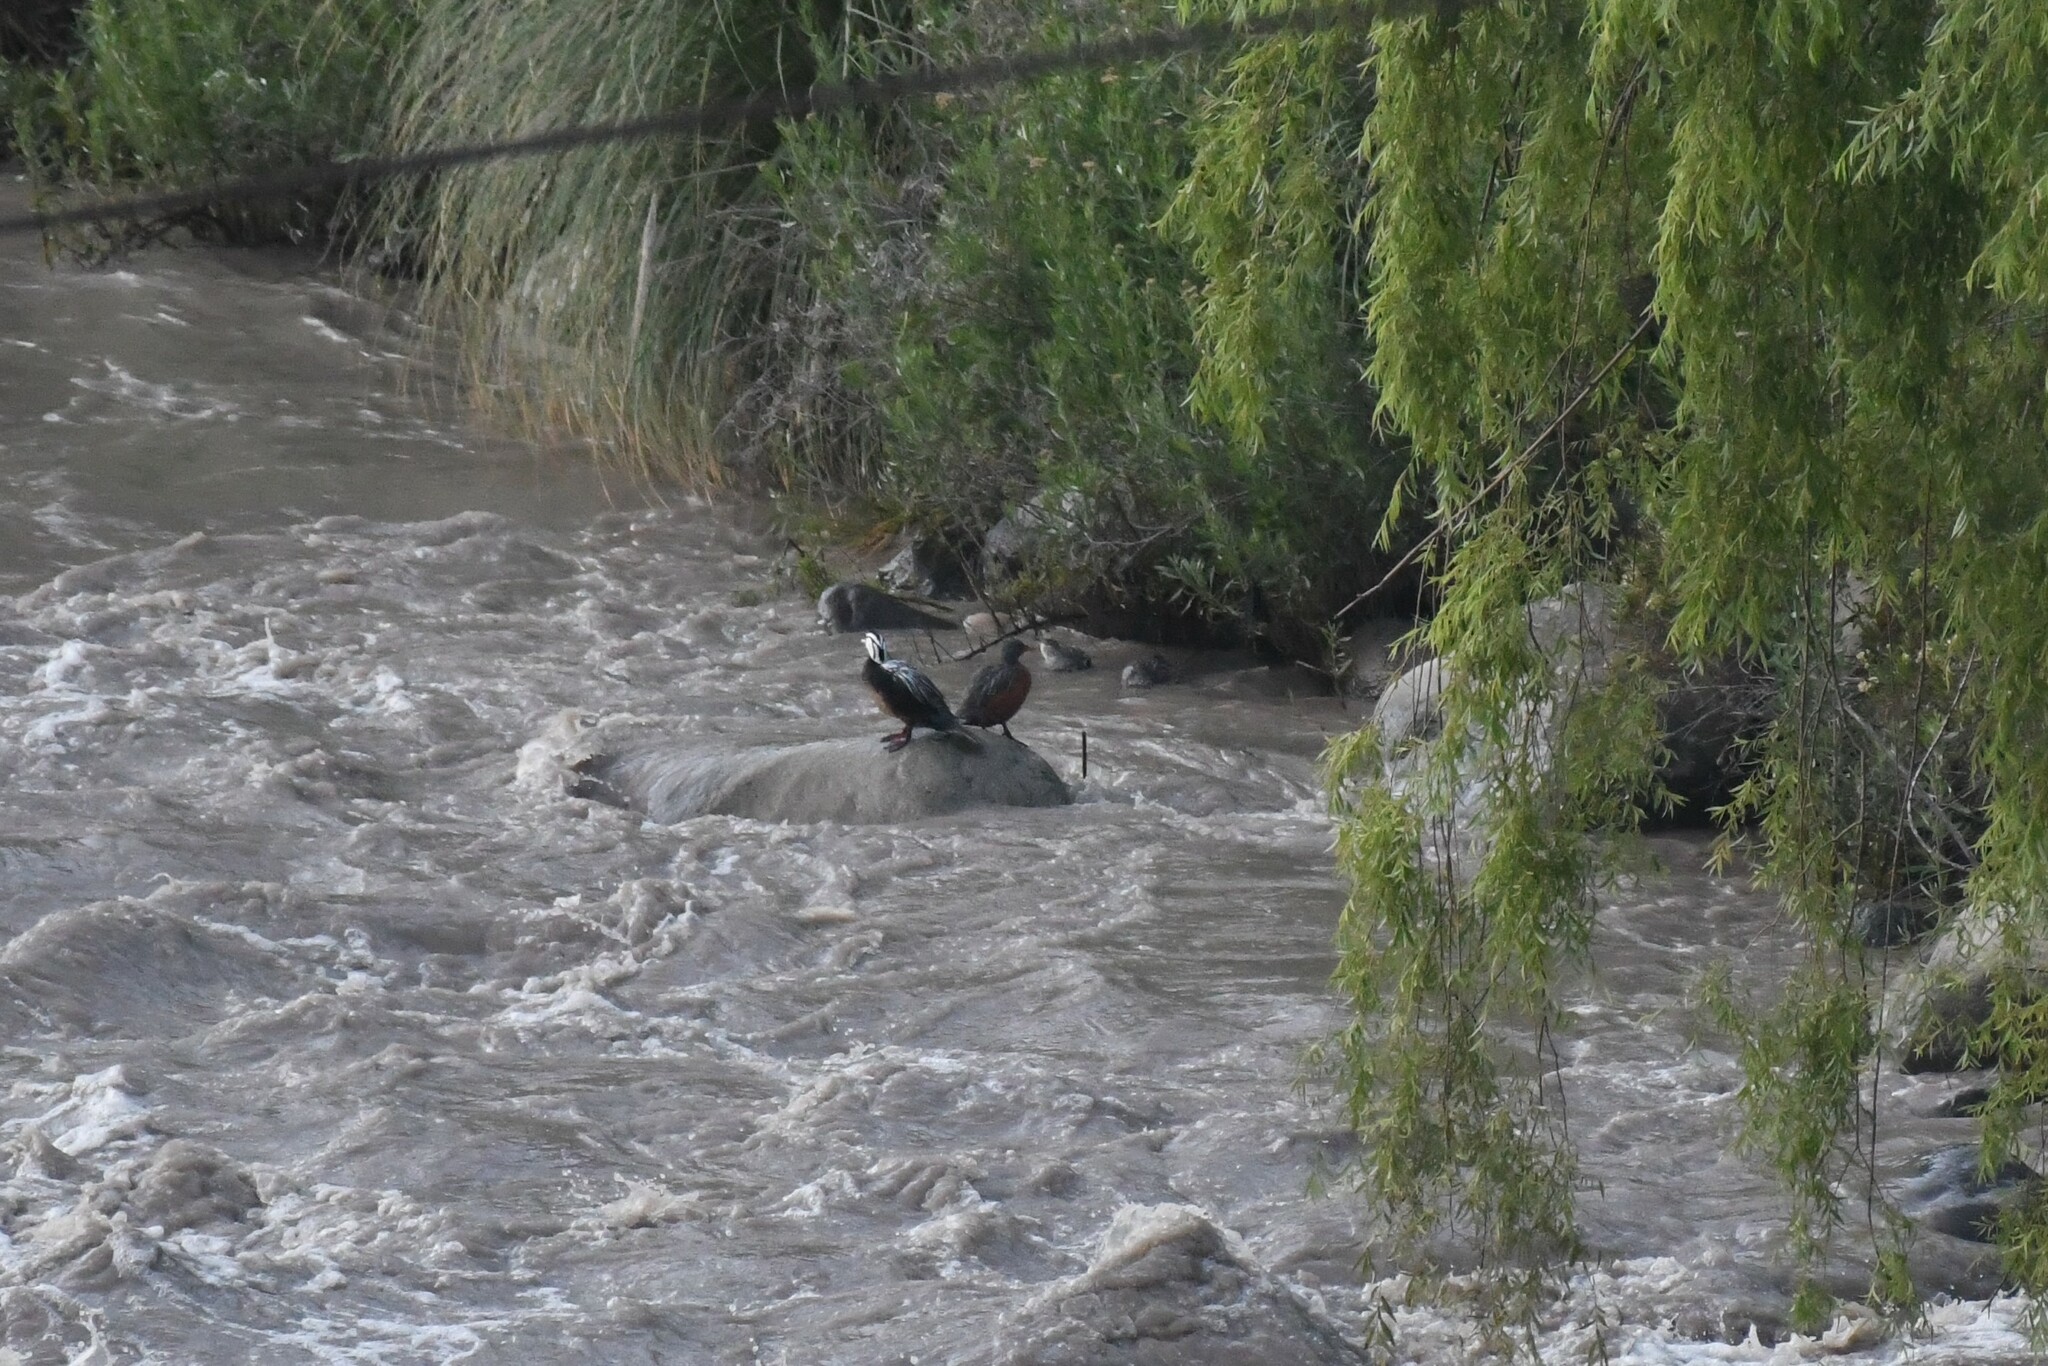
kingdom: Animalia
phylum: Chordata
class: Aves
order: Anseriformes
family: Anatidae
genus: Merganetta
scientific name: Merganetta armata
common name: Torrent duck
